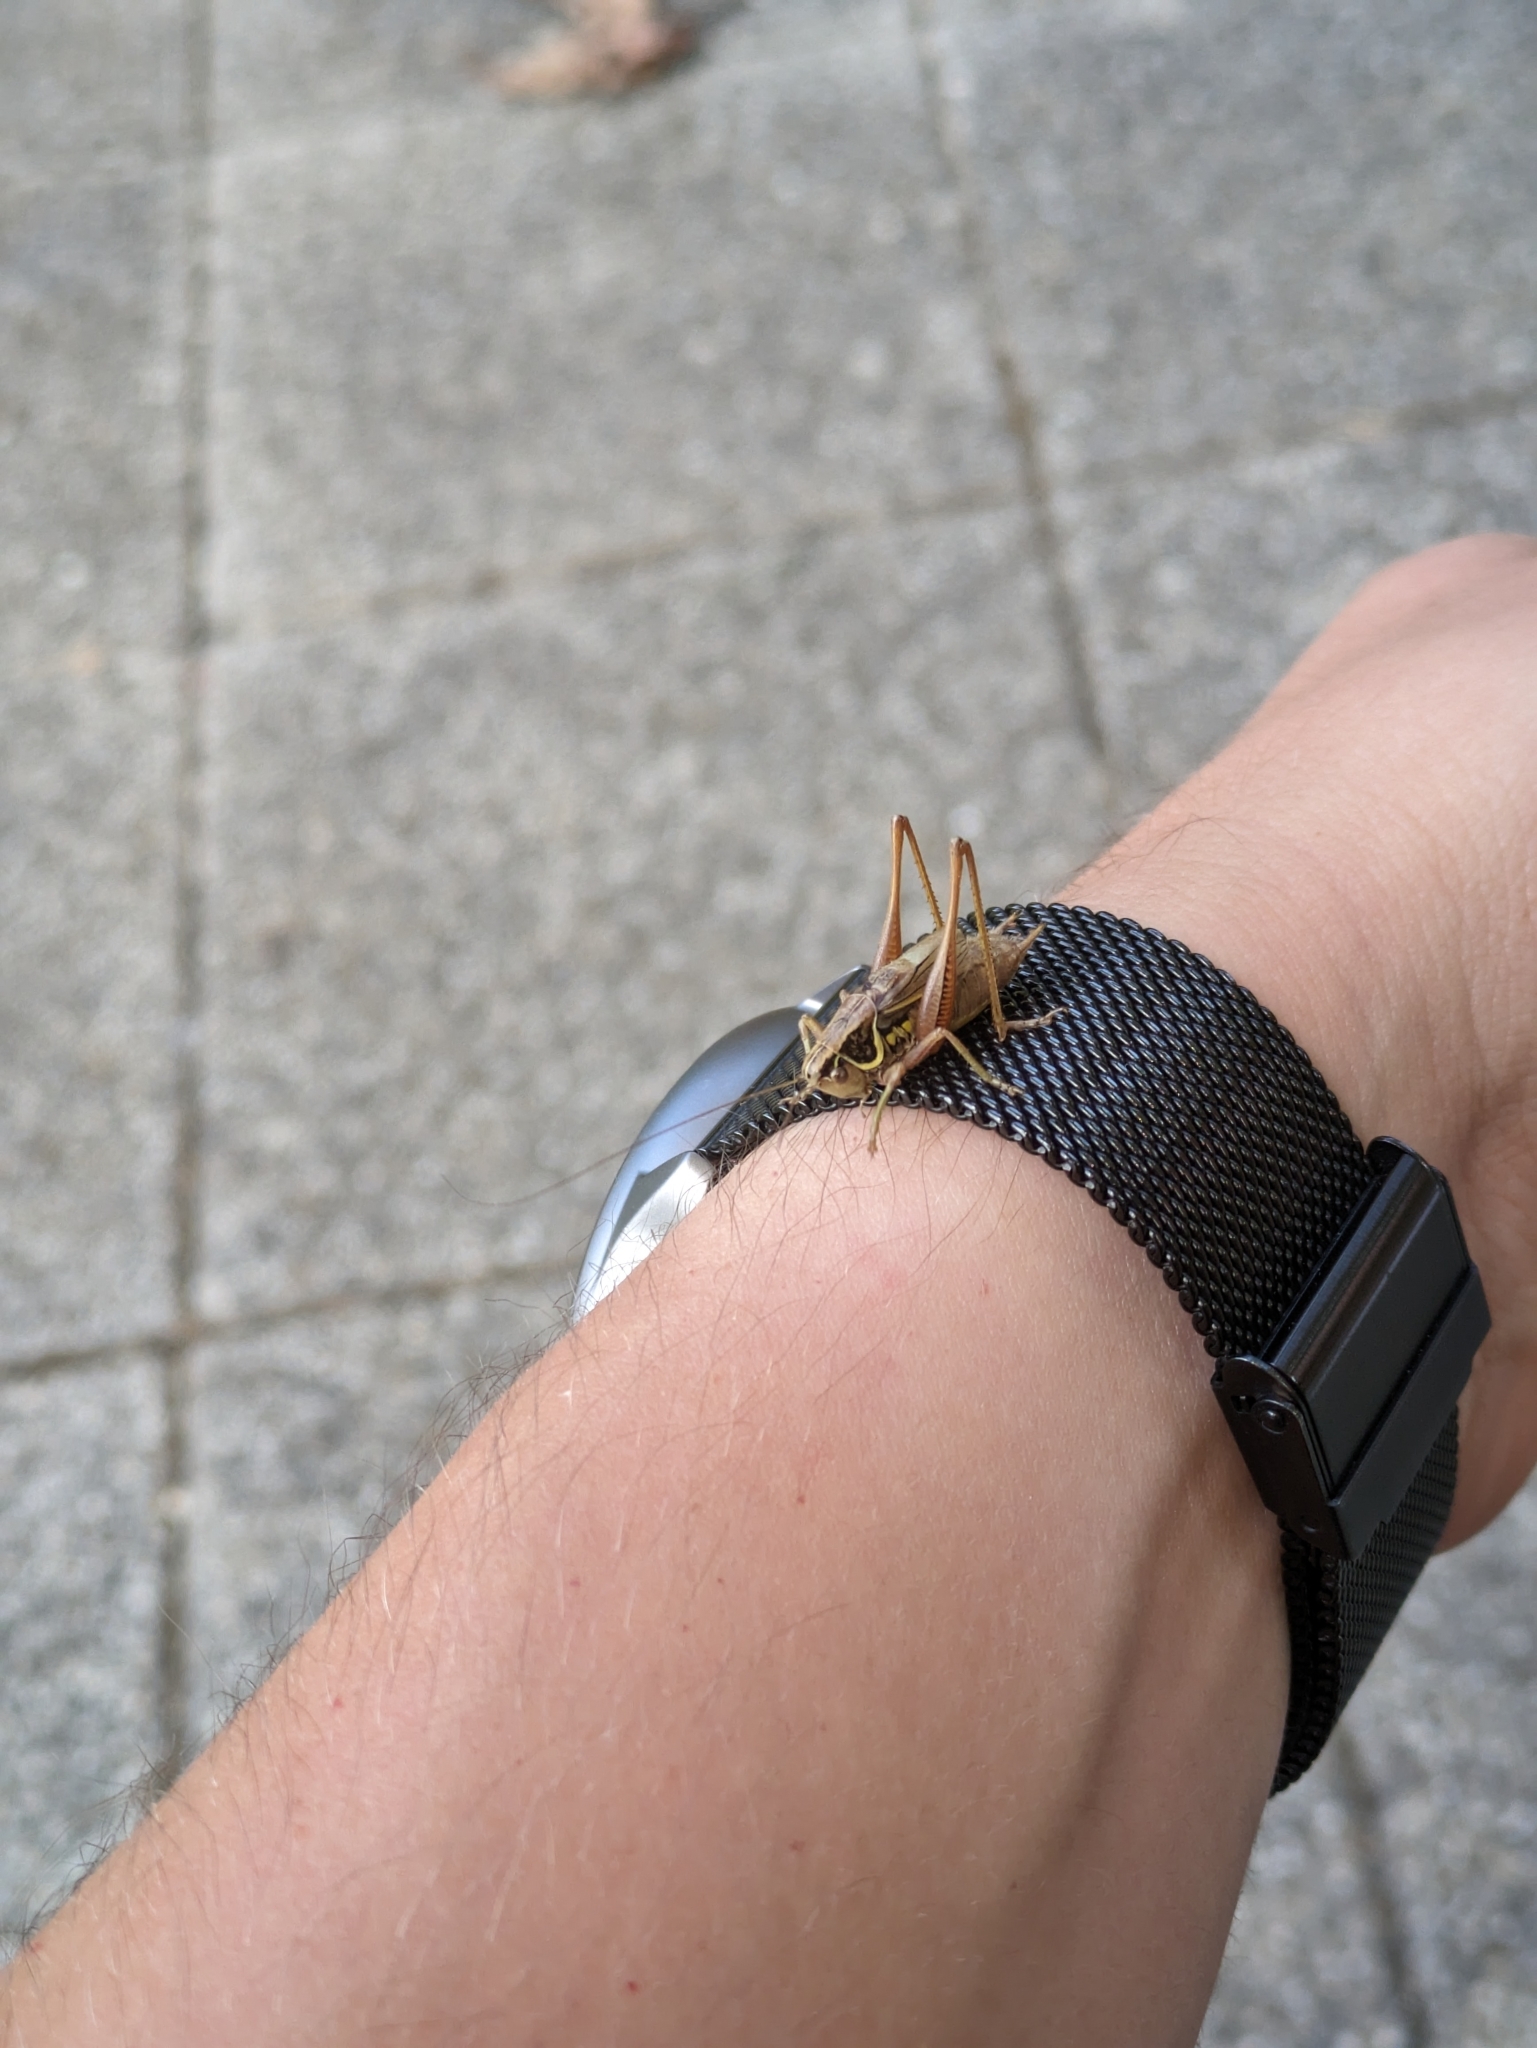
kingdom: Animalia
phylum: Arthropoda
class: Insecta
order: Orthoptera
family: Tettigoniidae
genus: Roeseliana
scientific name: Roeseliana roeselii
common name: Roesel's bush cricket
